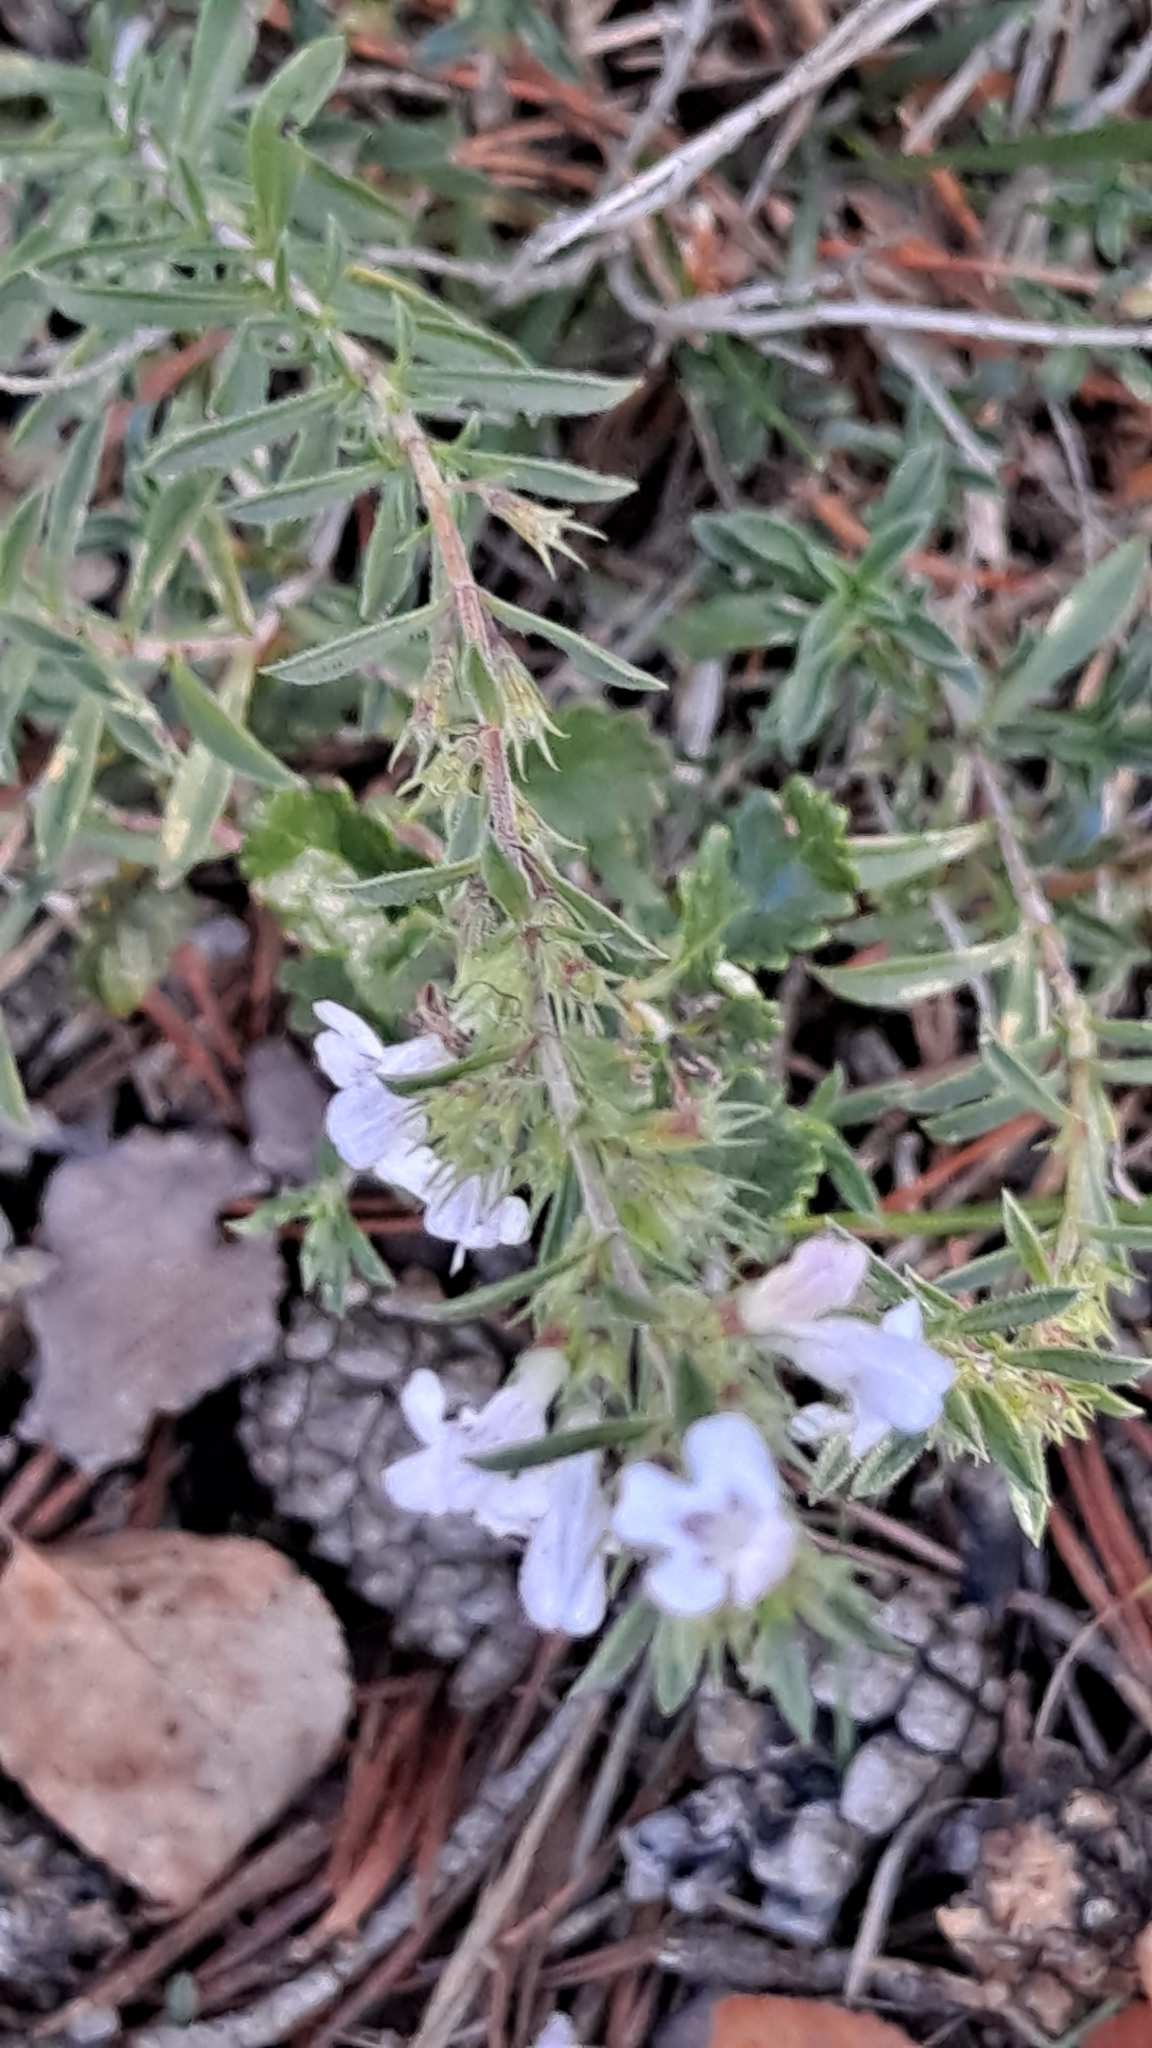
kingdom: Plantae
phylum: Tracheophyta
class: Magnoliopsida
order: Lamiales
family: Lamiaceae
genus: Satureja
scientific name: Satureja montana
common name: Winter savory
